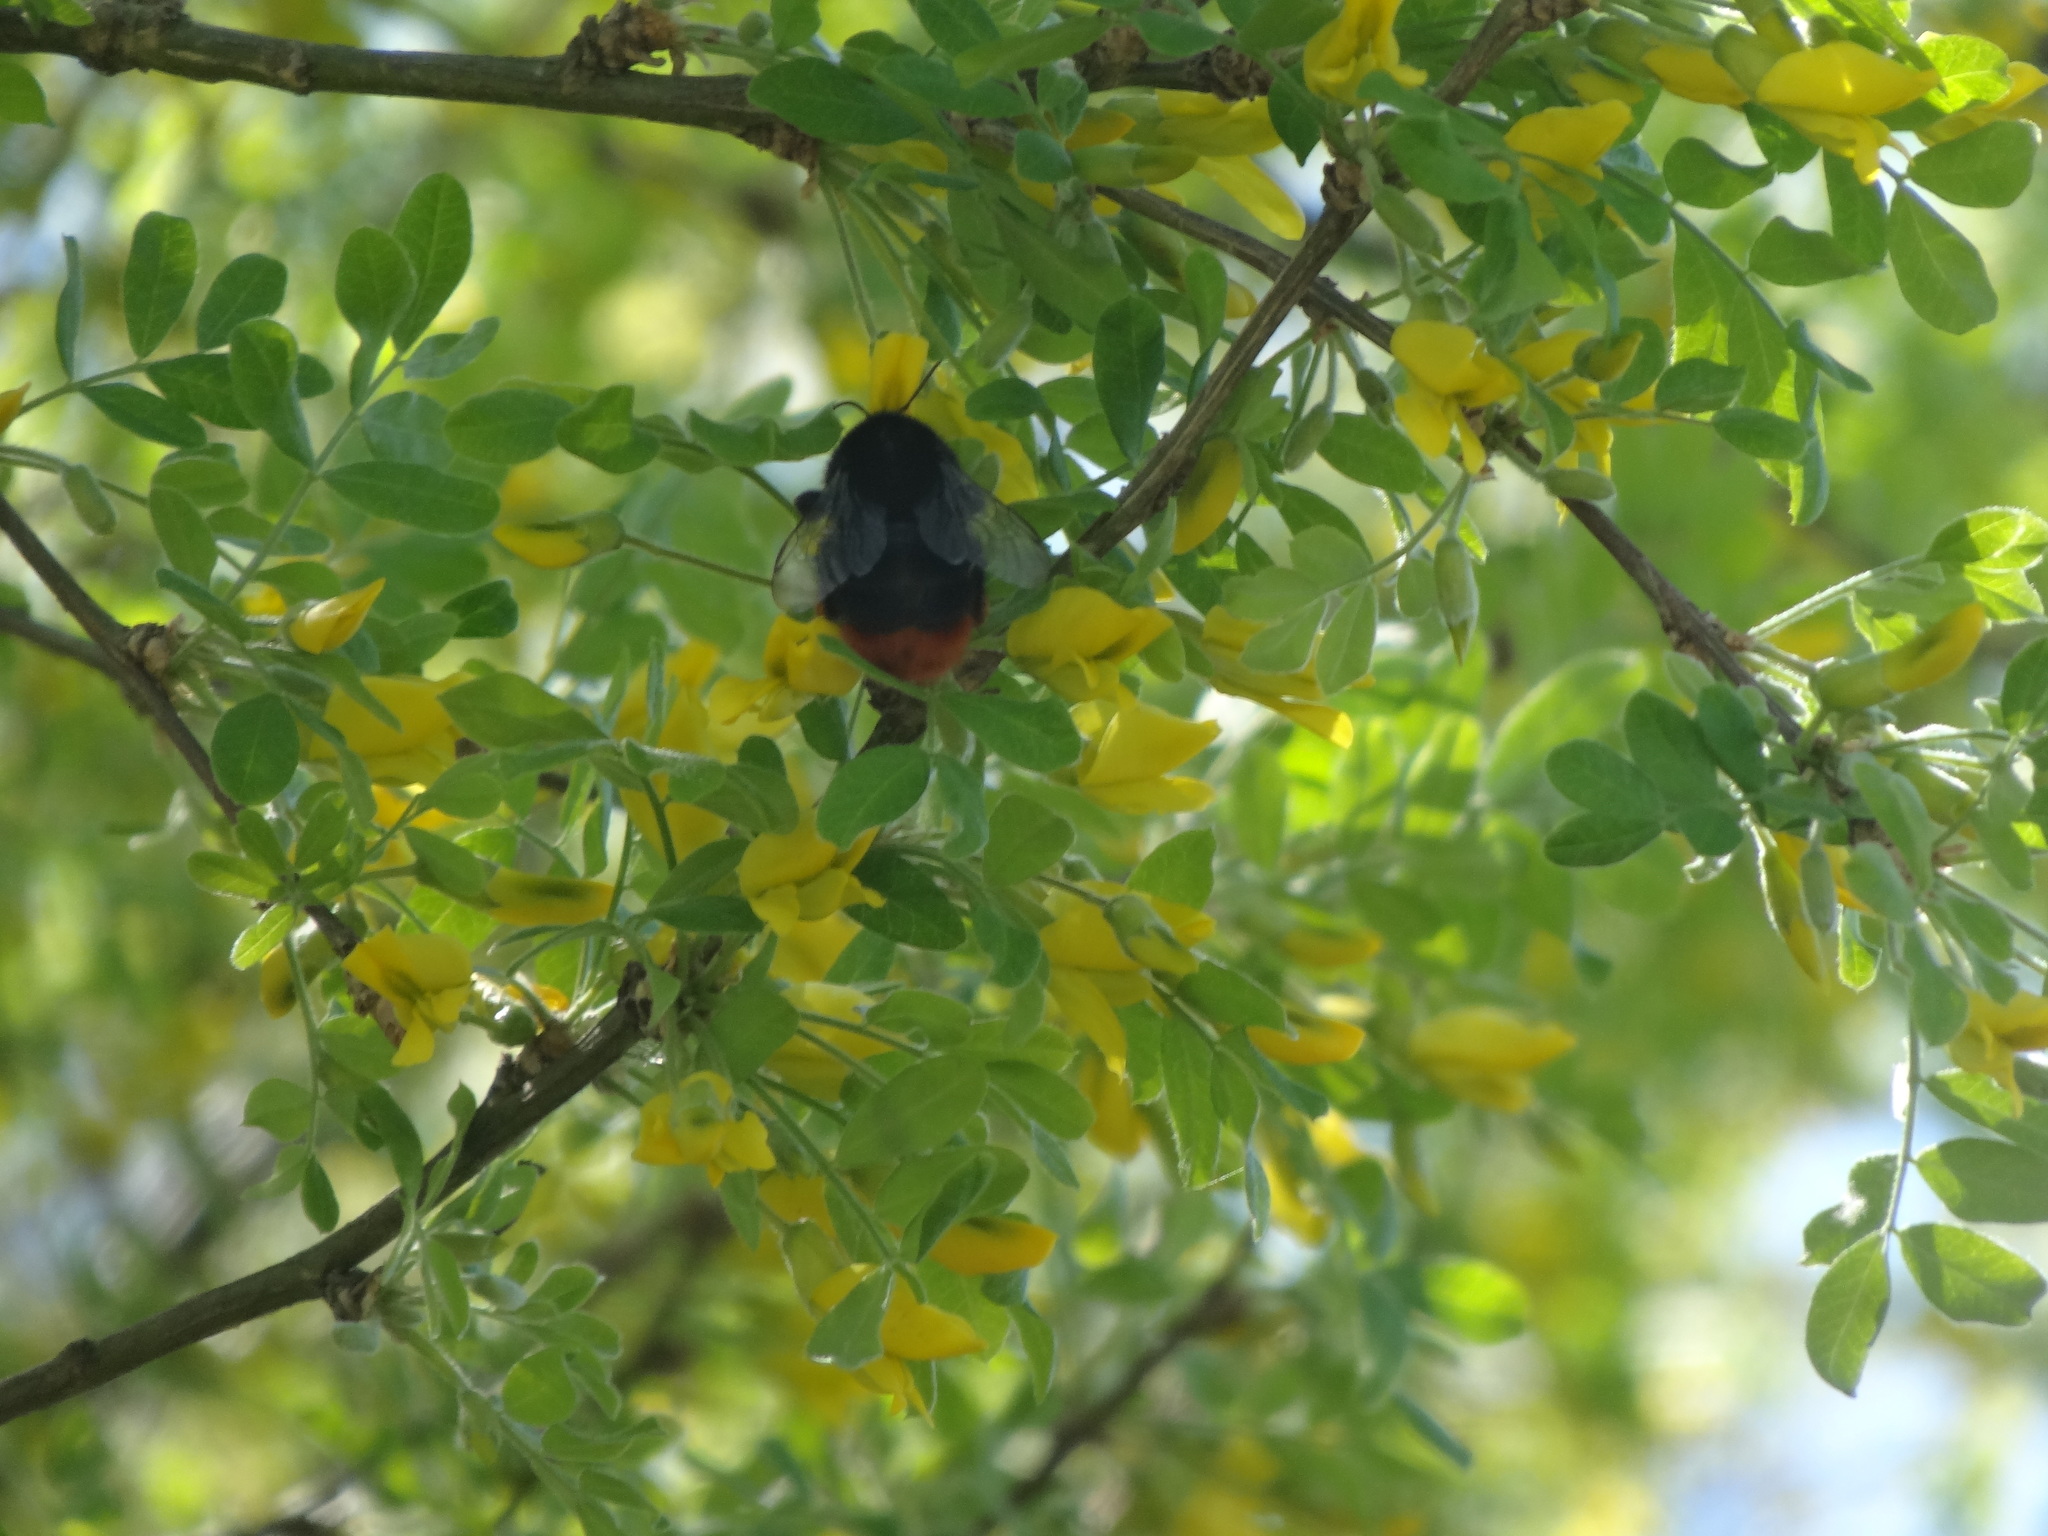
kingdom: Animalia
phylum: Arthropoda
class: Insecta
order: Hymenoptera
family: Apidae
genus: Bombus
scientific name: Bombus lapidarius
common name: Large red-tailed humble-bee
